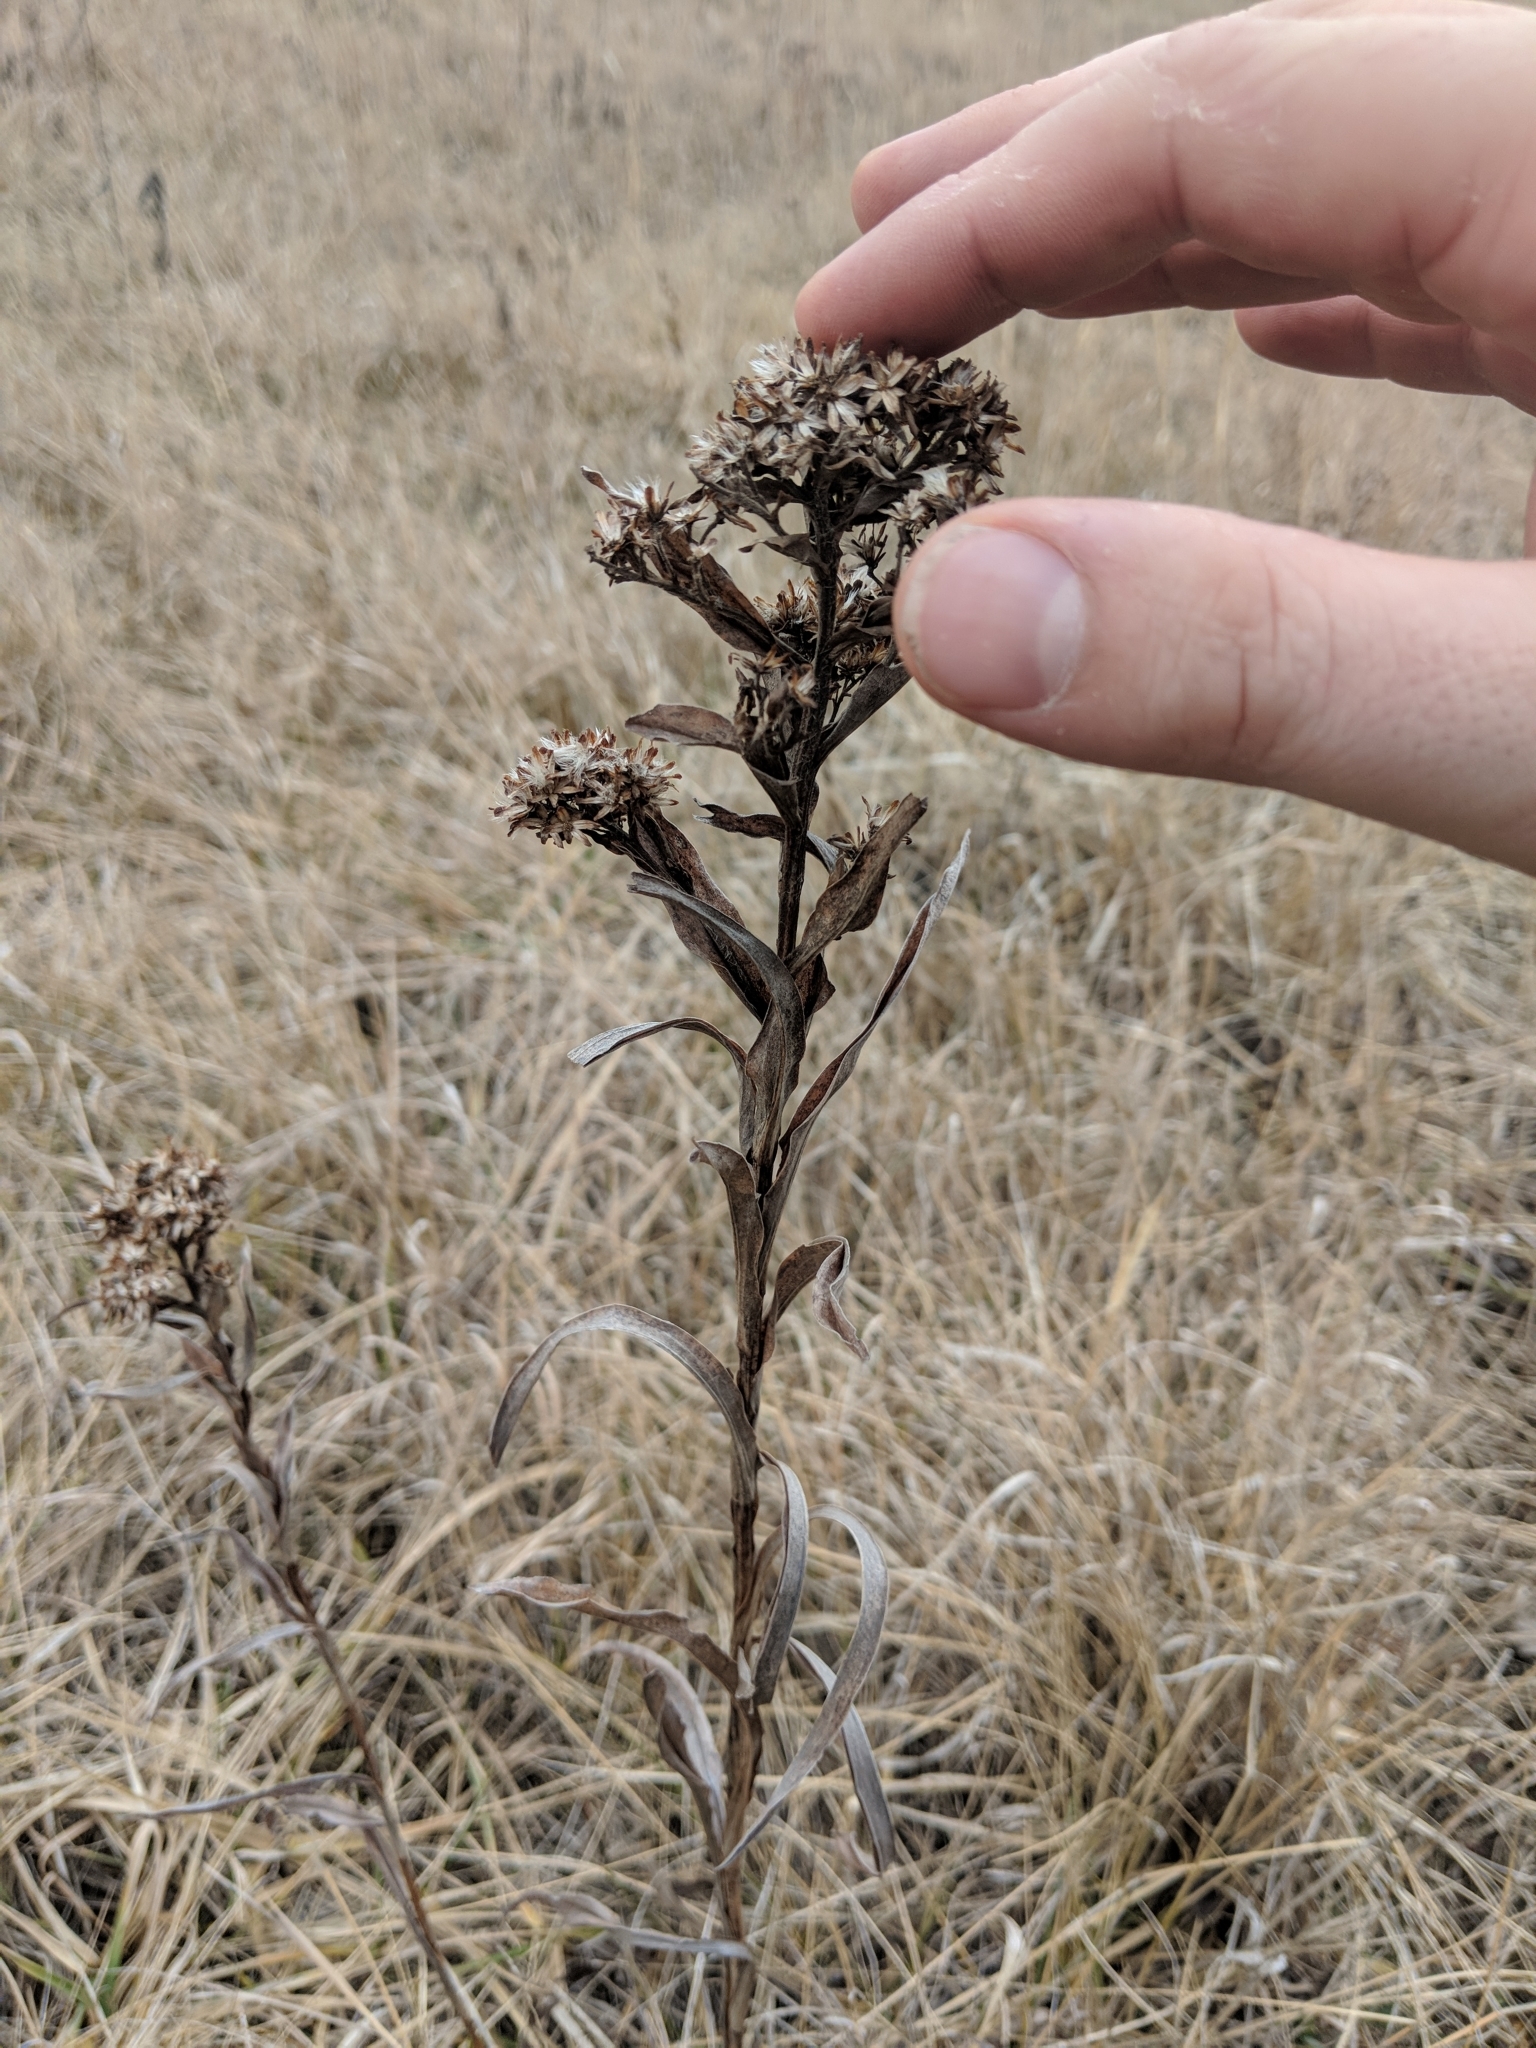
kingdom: Plantae
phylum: Tracheophyta
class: Magnoliopsida
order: Asterales
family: Asteraceae
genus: Solidago
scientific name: Solidago riddellii
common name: Riddell's goldenrod
